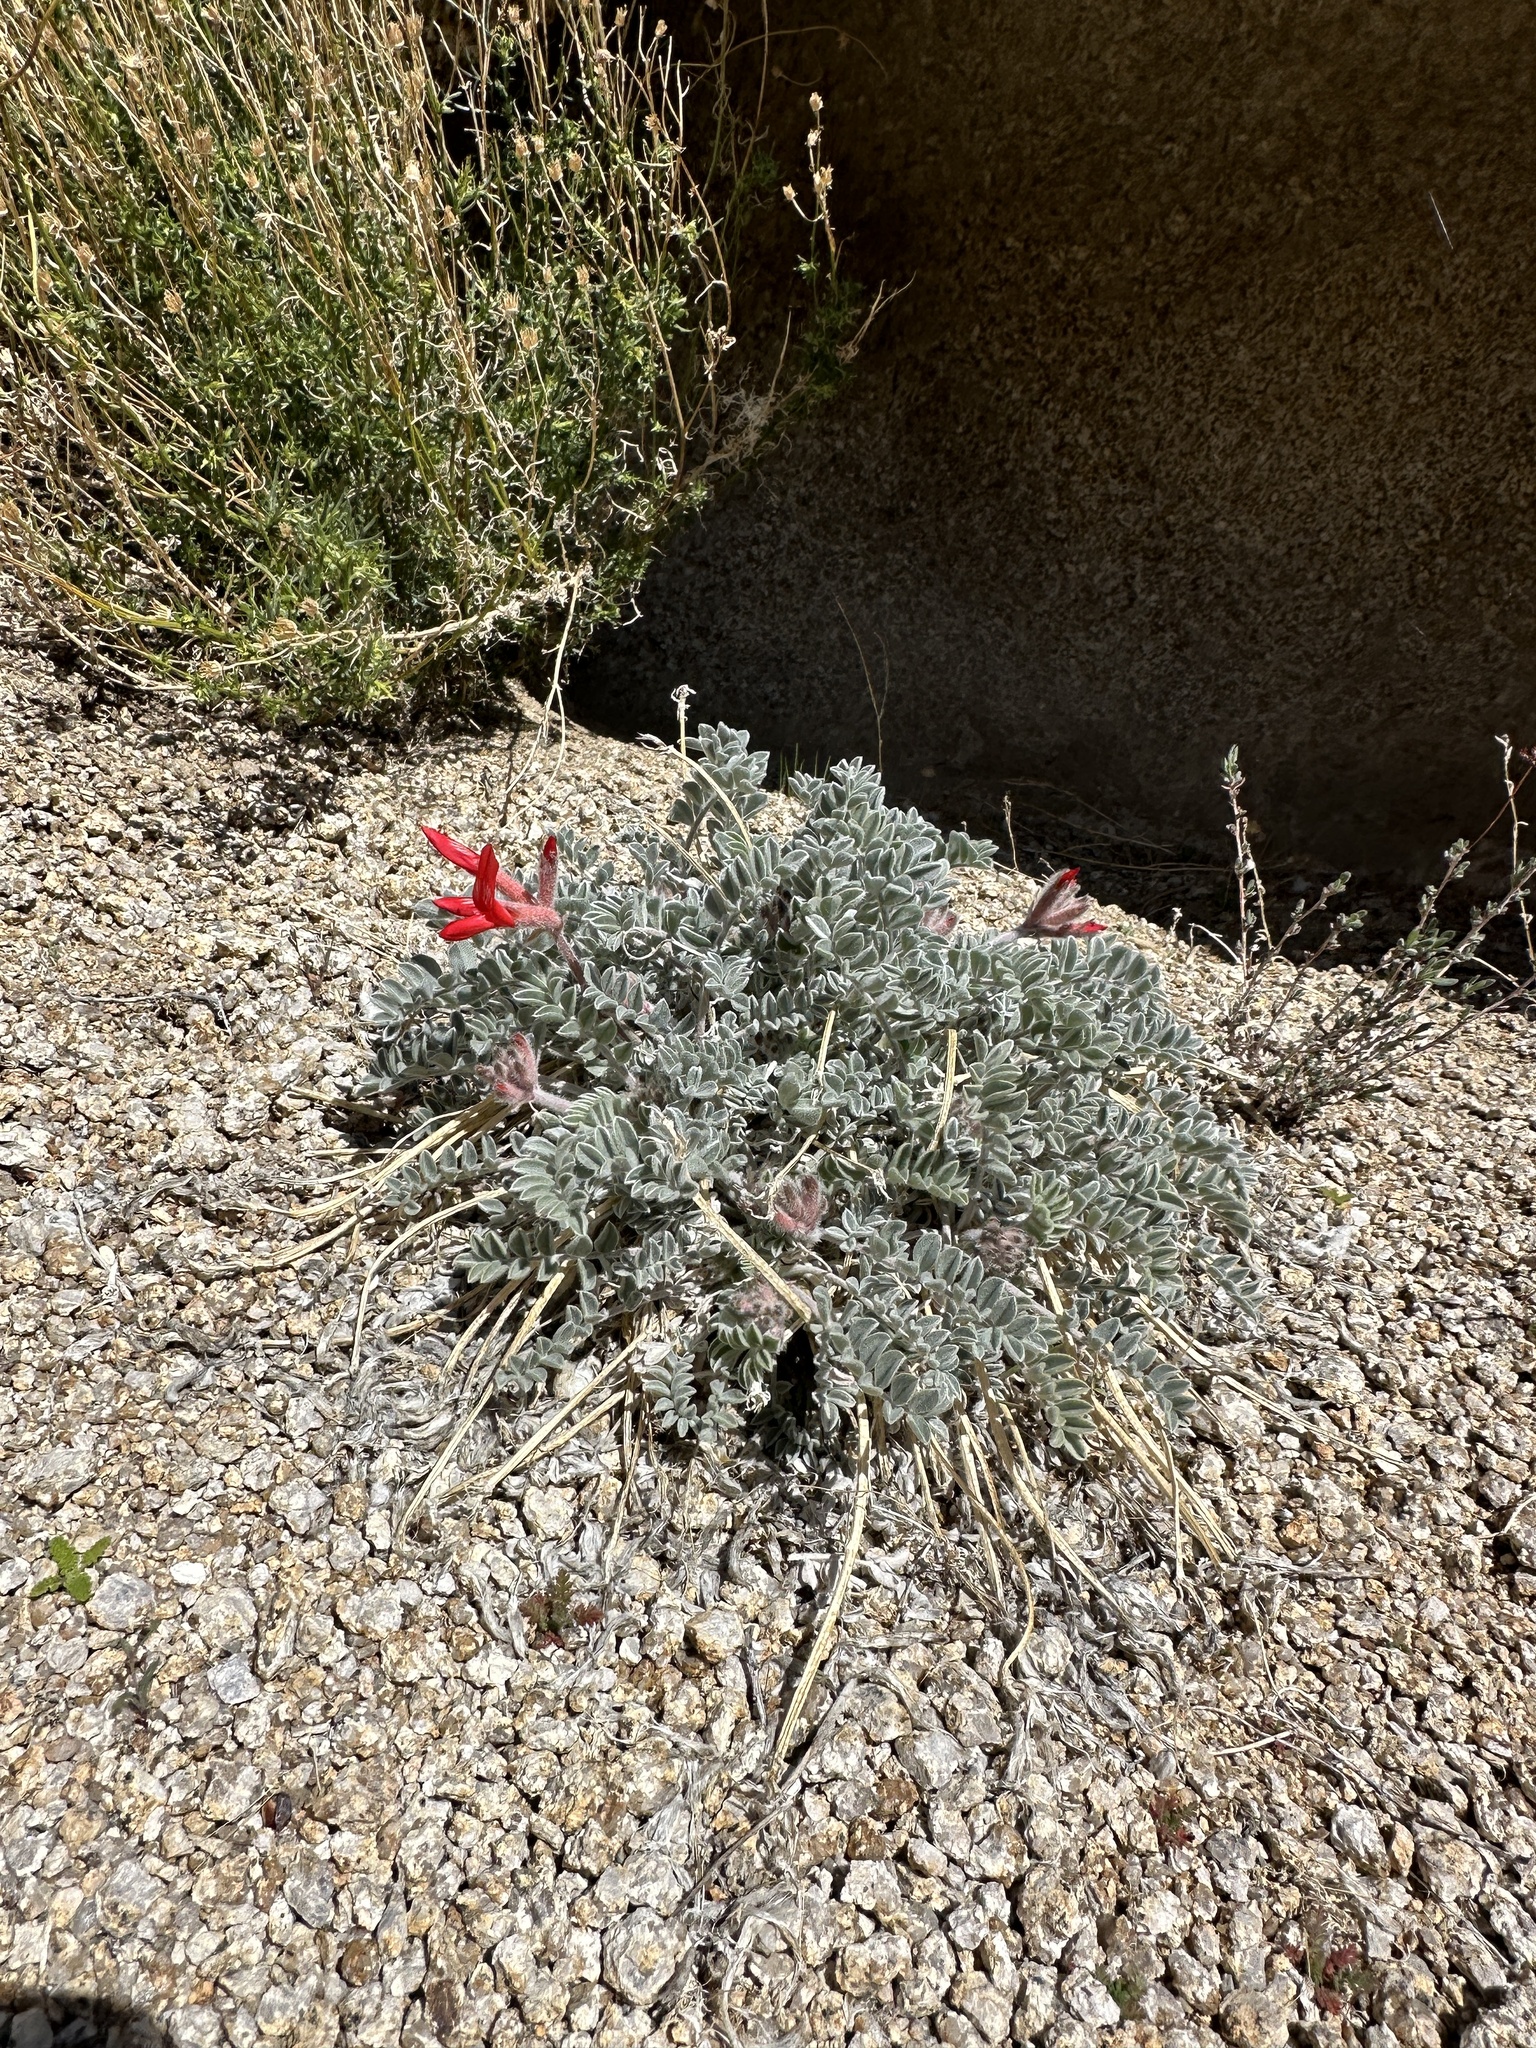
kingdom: Plantae
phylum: Tracheophyta
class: Magnoliopsida
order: Fabales
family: Fabaceae
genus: Astragalus
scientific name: Astragalus coccineus
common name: Scarlet milk-vetch
